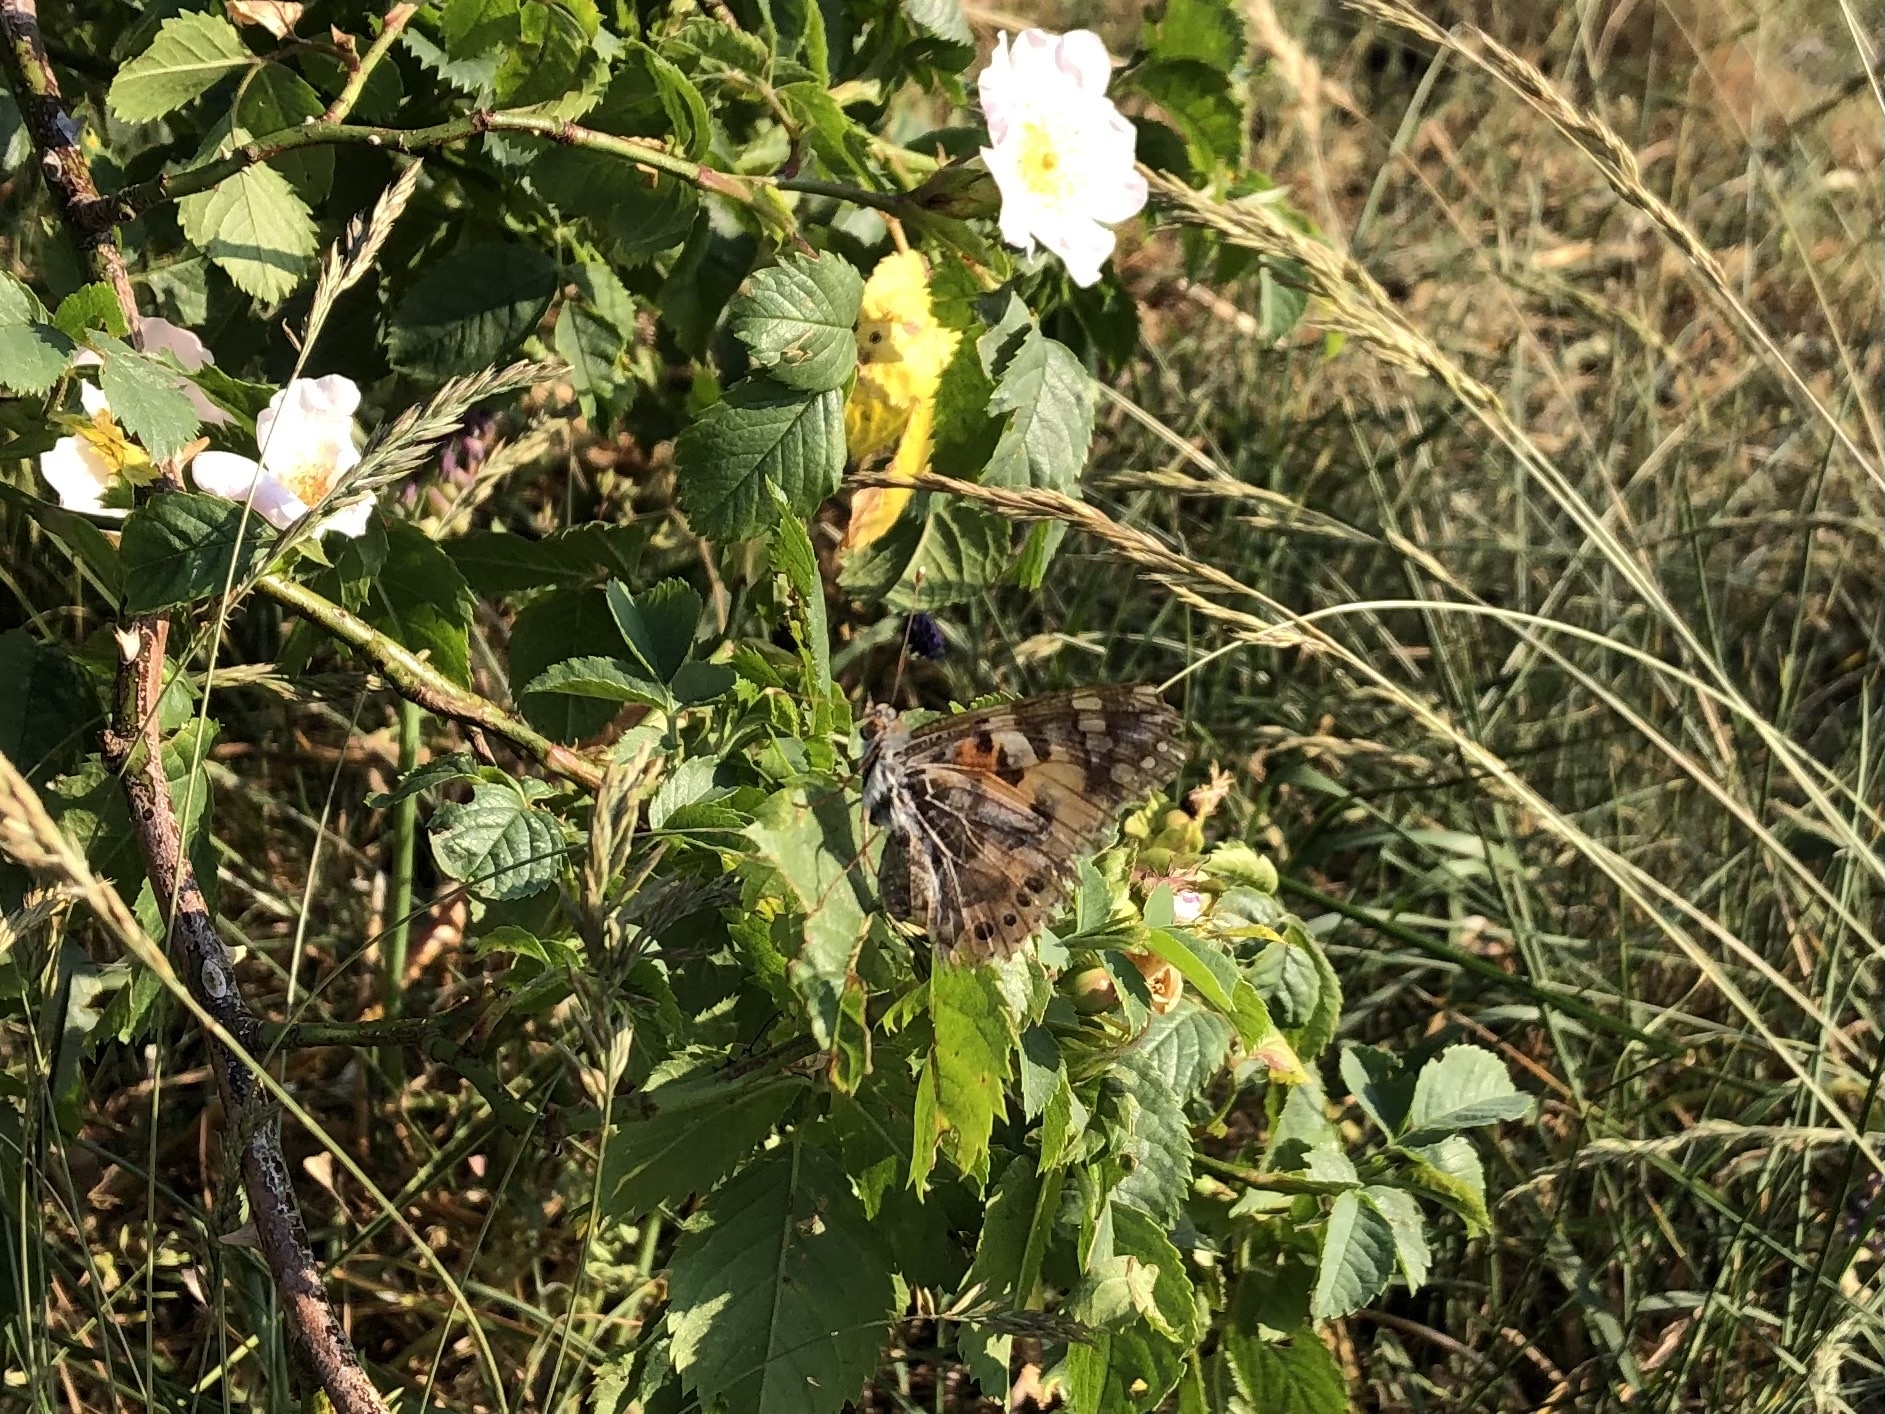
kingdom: Animalia
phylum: Arthropoda
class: Insecta
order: Lepidoptera
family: Nymphalidae
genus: Vanessa
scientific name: Vanessa cardui
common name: Painted lady
